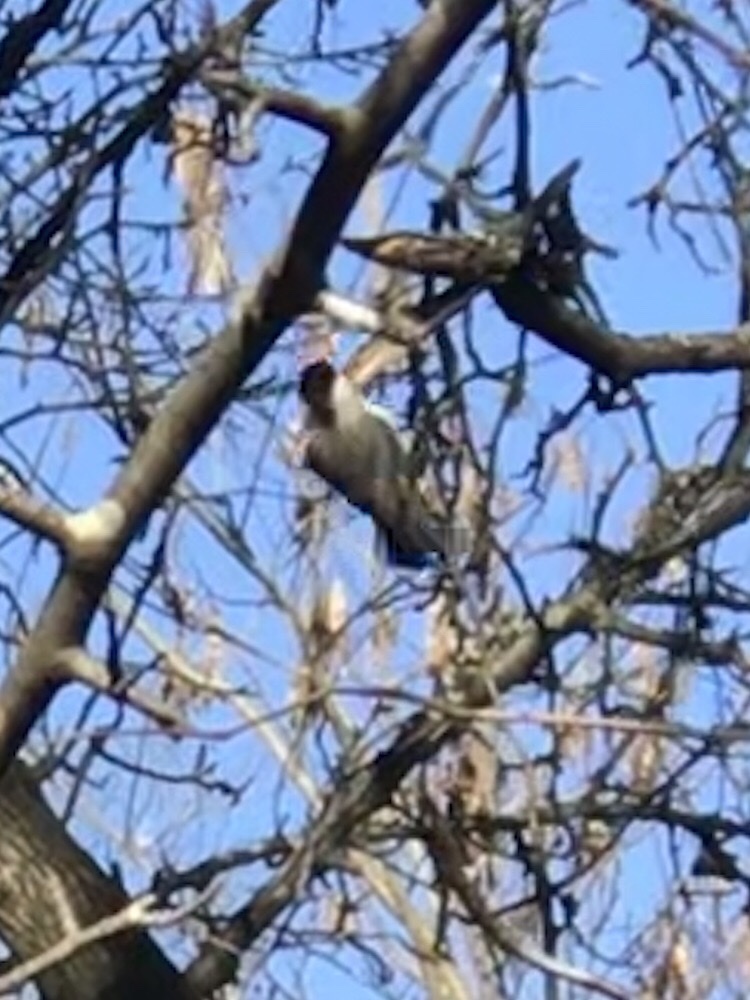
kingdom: Animalia
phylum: Chordata
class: Aves
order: Passeriformes
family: Paridae
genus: Poecile
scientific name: Poecile carolinensis
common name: Carolina chickadee
